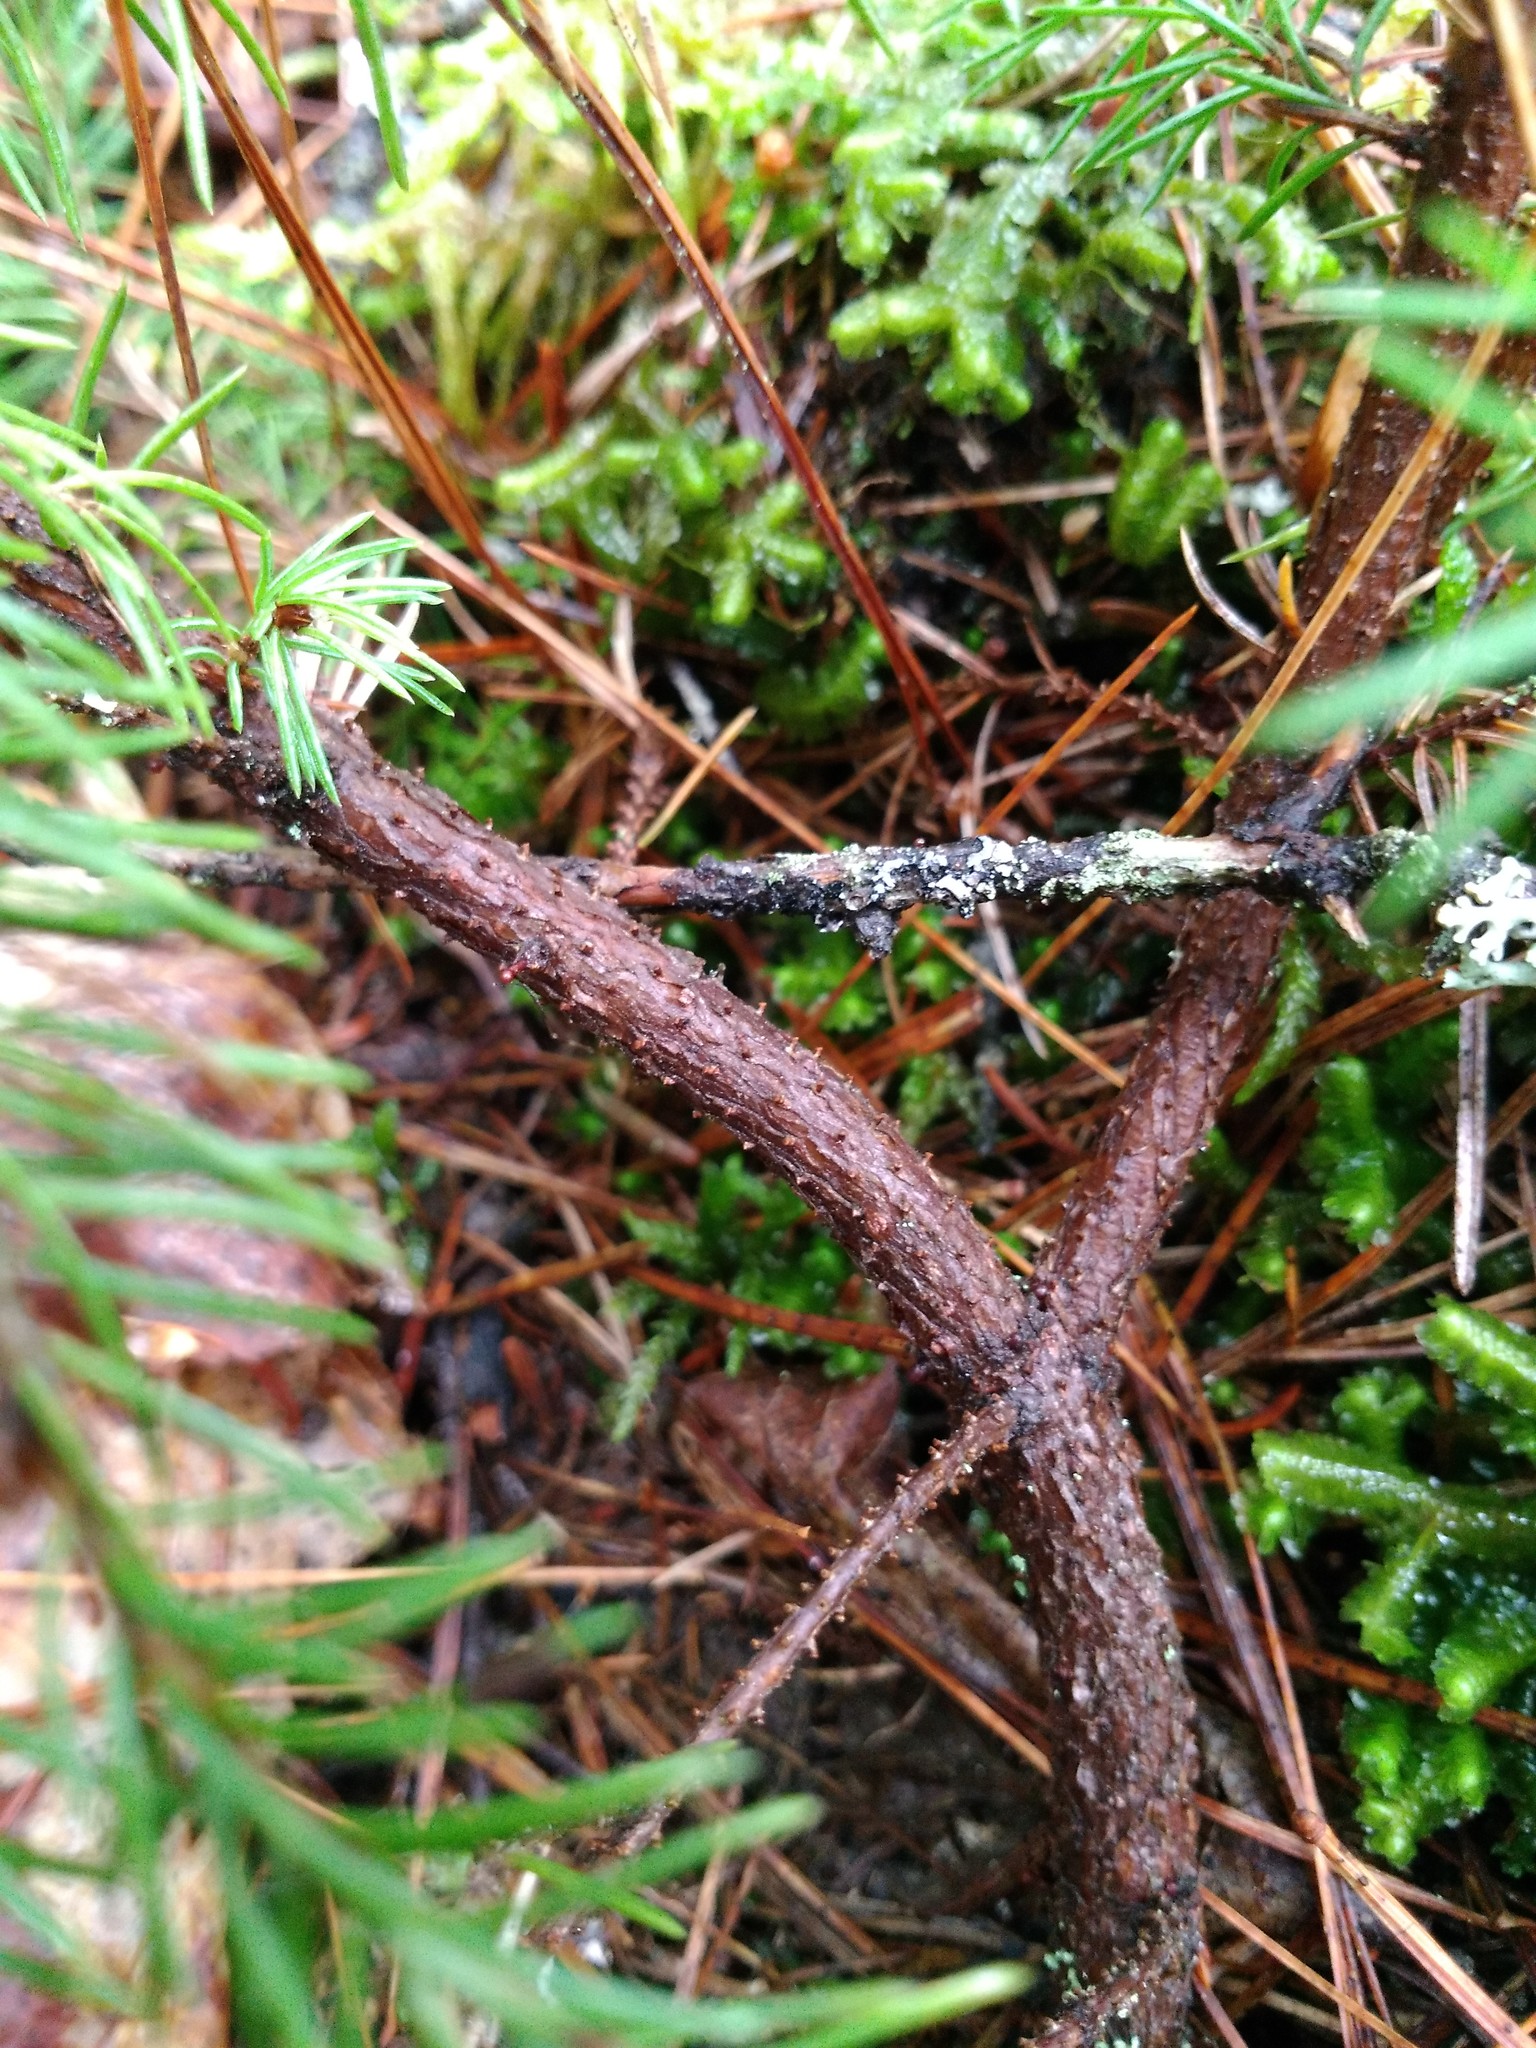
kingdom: Plantae
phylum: Tracheophyta
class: Pinopsida
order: Pinales
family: Pinaceae
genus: Picea
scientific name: Picea rubens
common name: Red spruce
